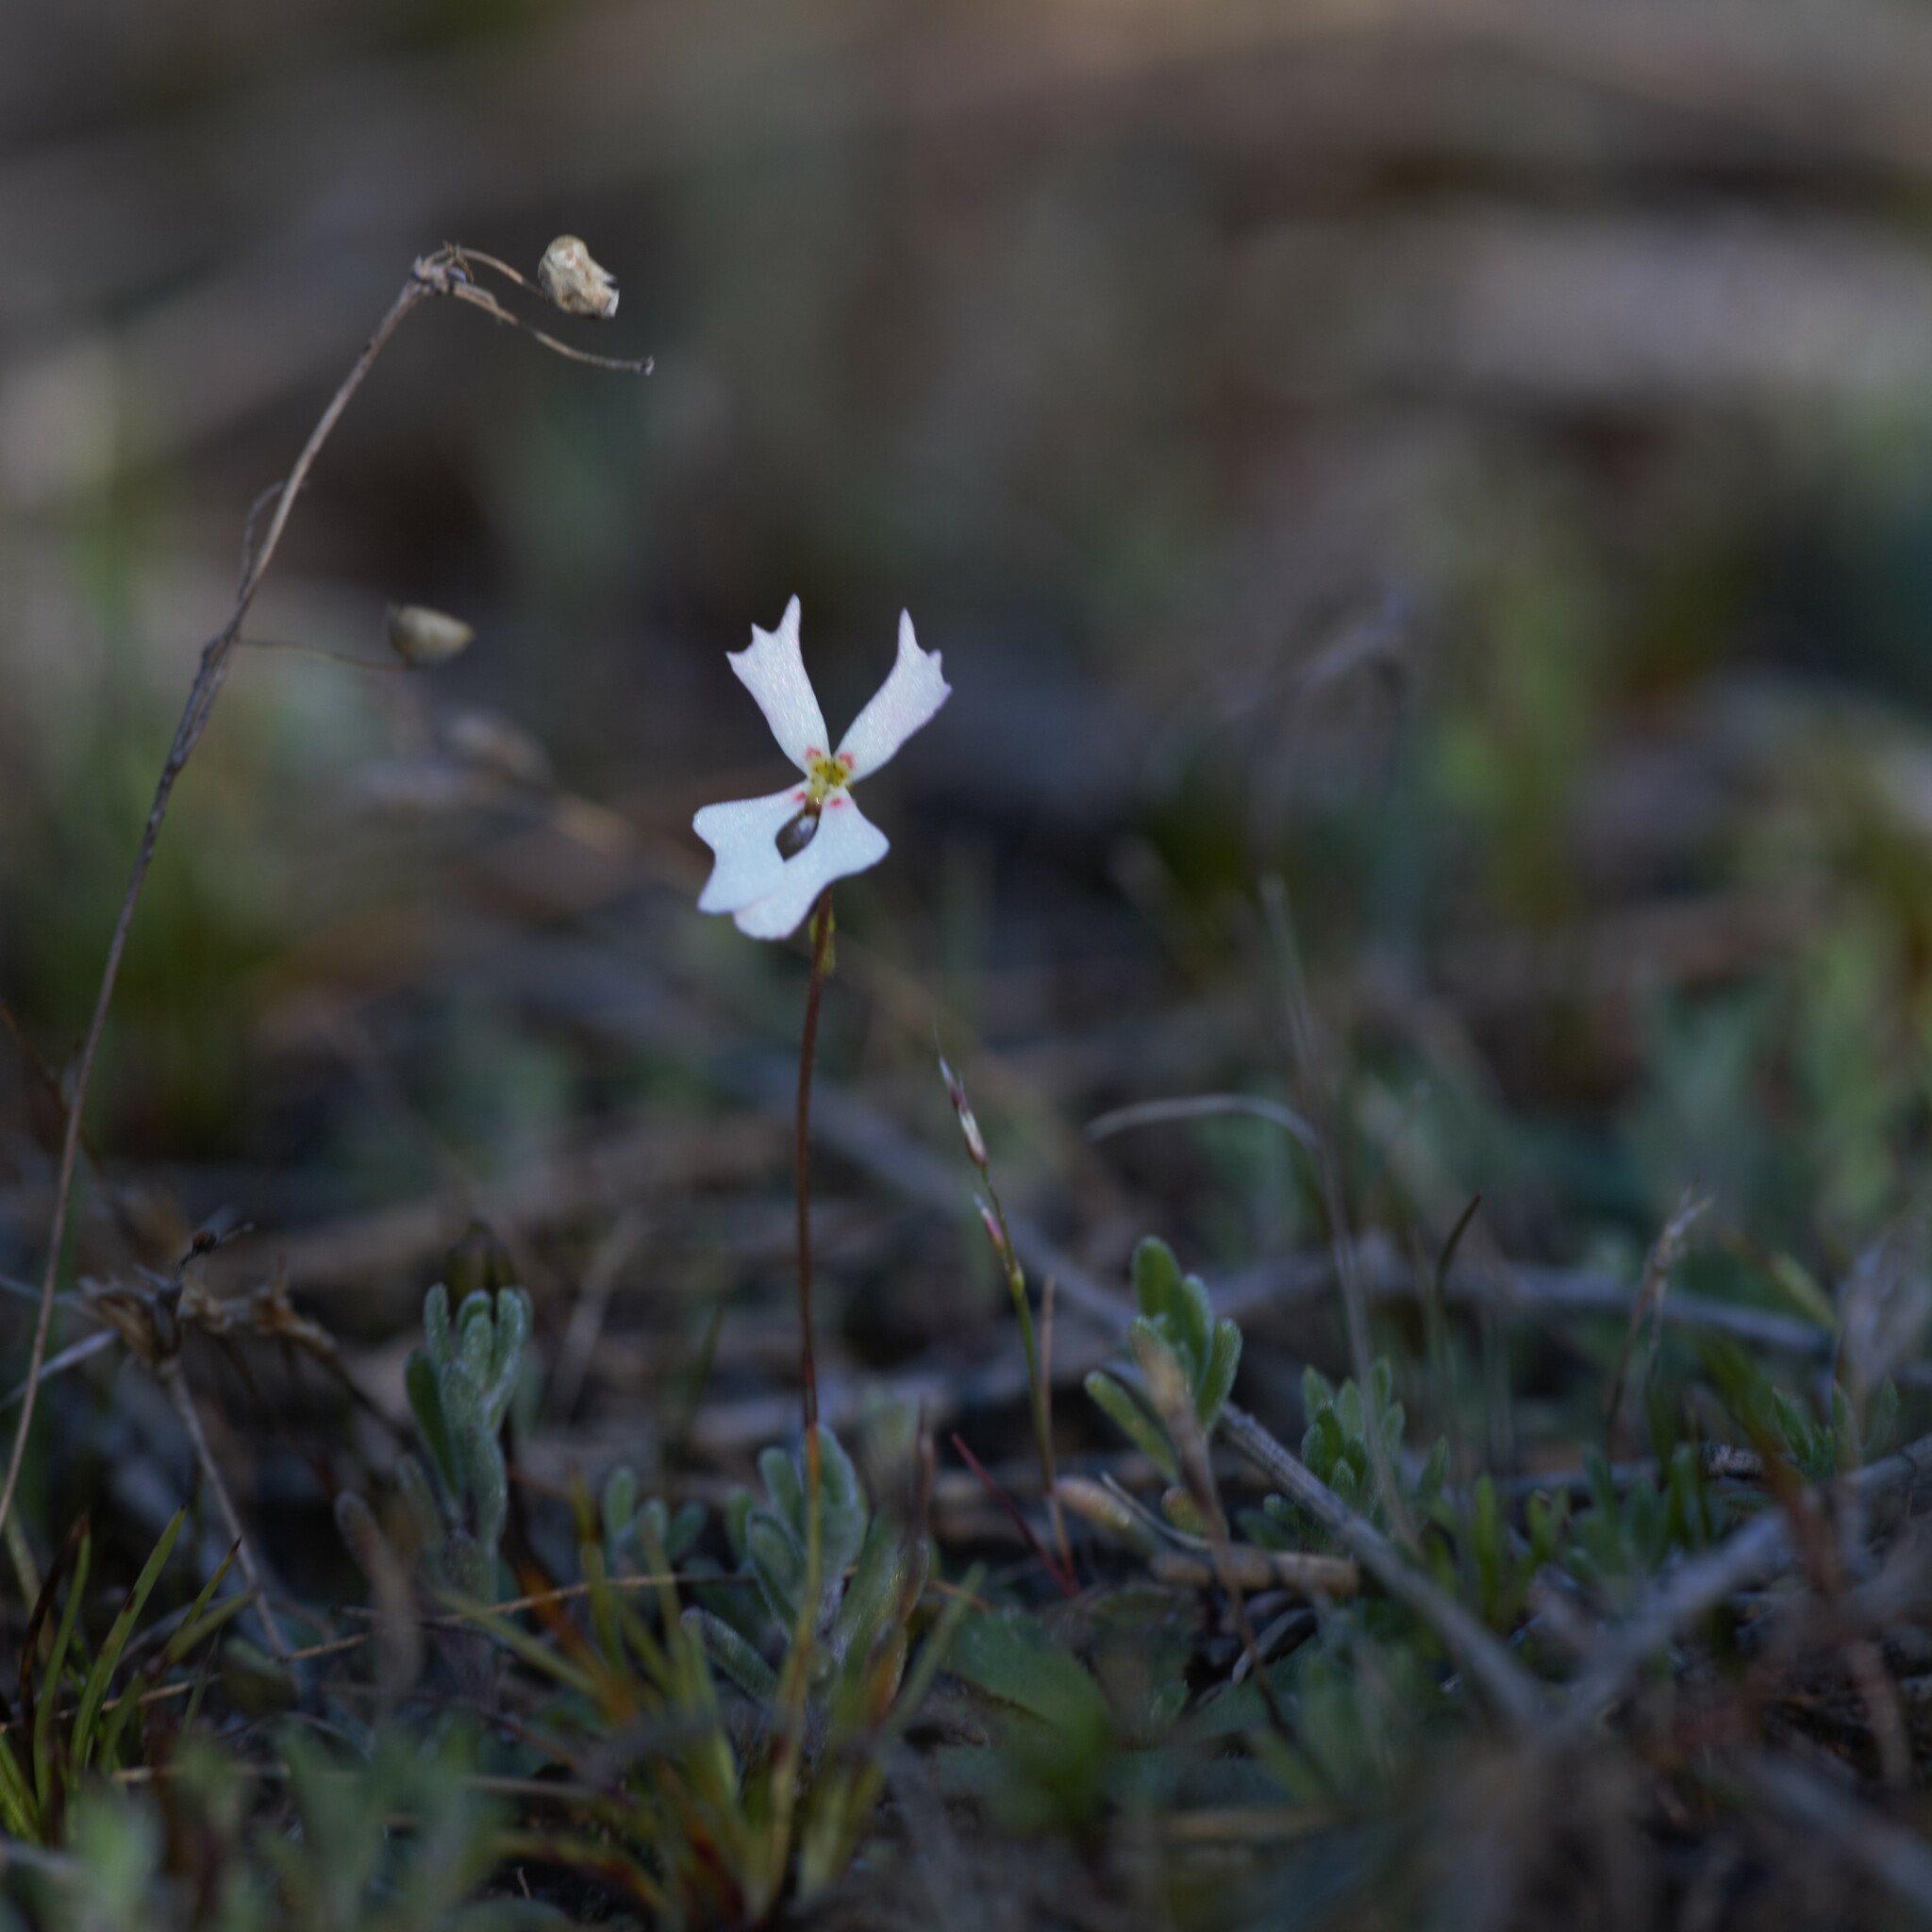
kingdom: Plantae
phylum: Tracheophyta
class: Magnoliopsida
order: Asterales
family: Stylidiaceae
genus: Stylidium
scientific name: Stylidium androsaceum
